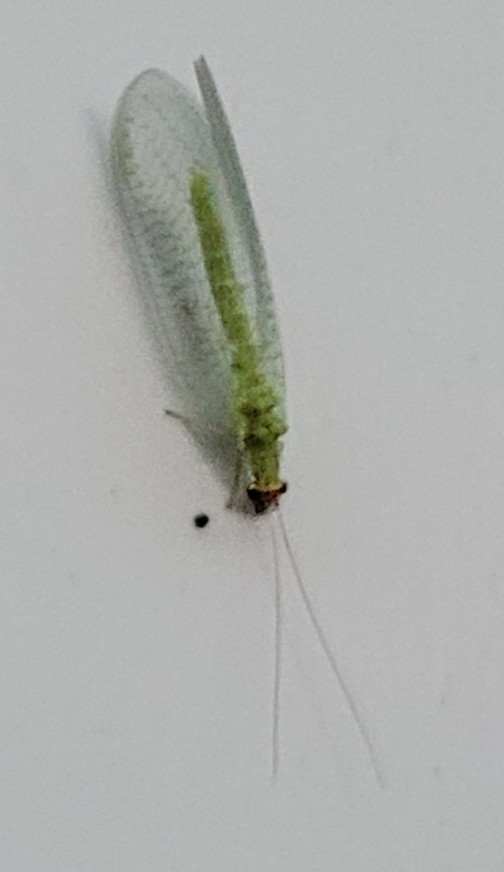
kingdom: Animalia
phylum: Arthropoda
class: Insecta
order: Neuroptera
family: Chrysopidae
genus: Chrysopa
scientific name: Chrysopa oculata
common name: Golden-eyed lacewing
